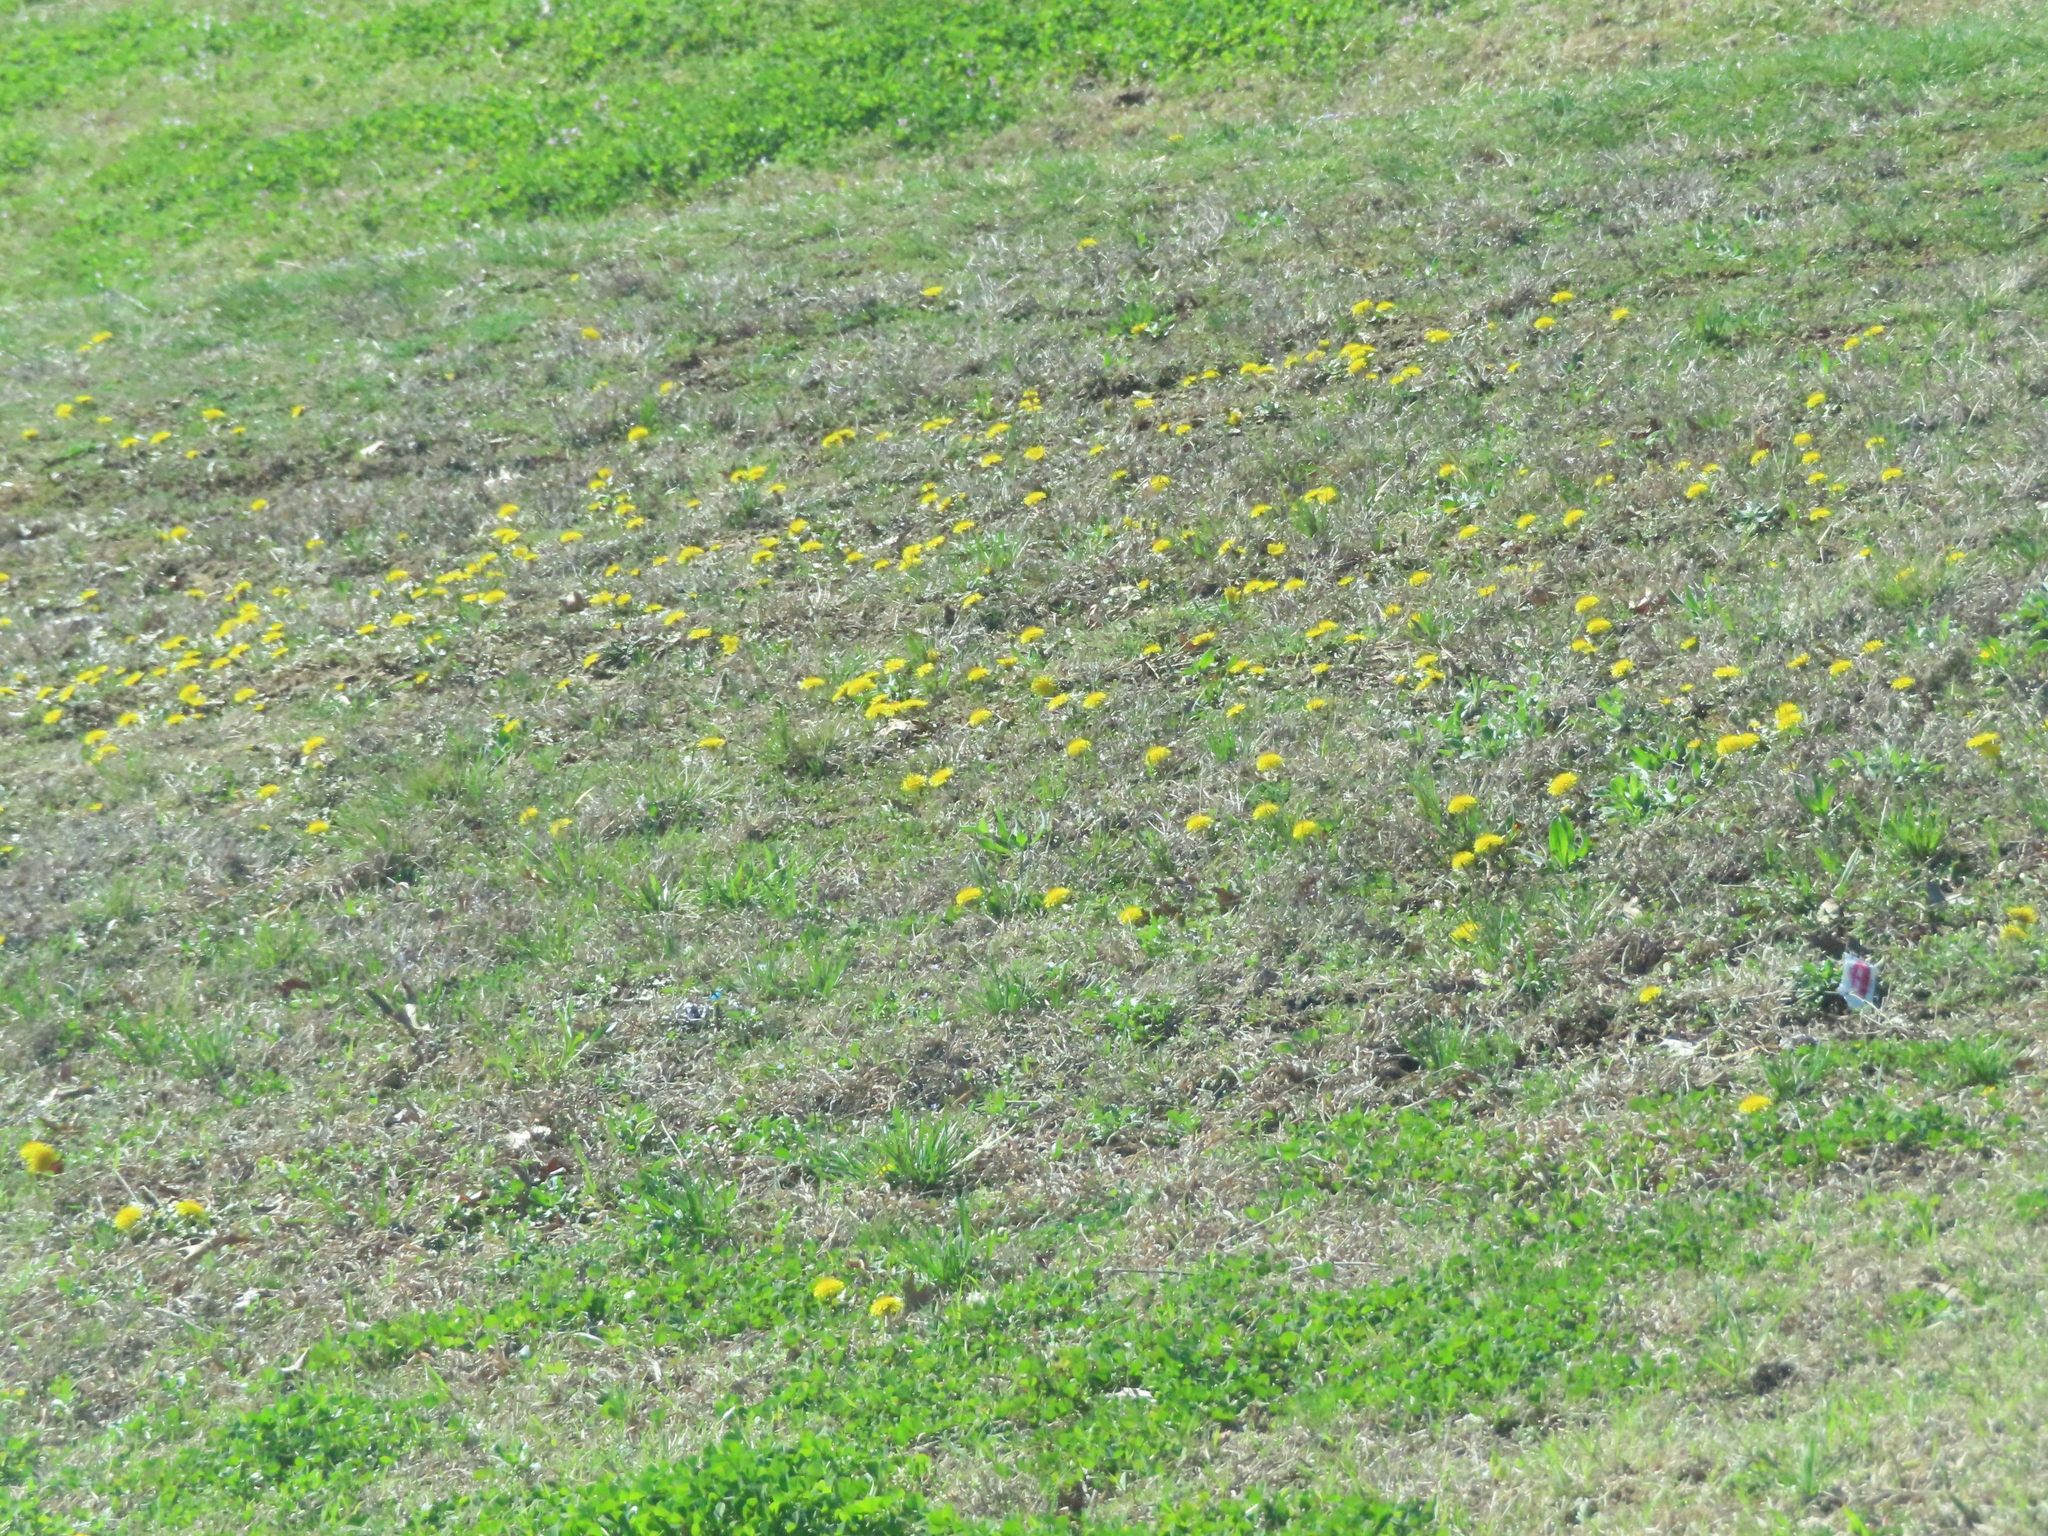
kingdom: Plantae
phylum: Tracheophyta
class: Magnoliopsida
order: Asterales
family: Asteraceae
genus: Taraxacum
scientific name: Taraxacum
